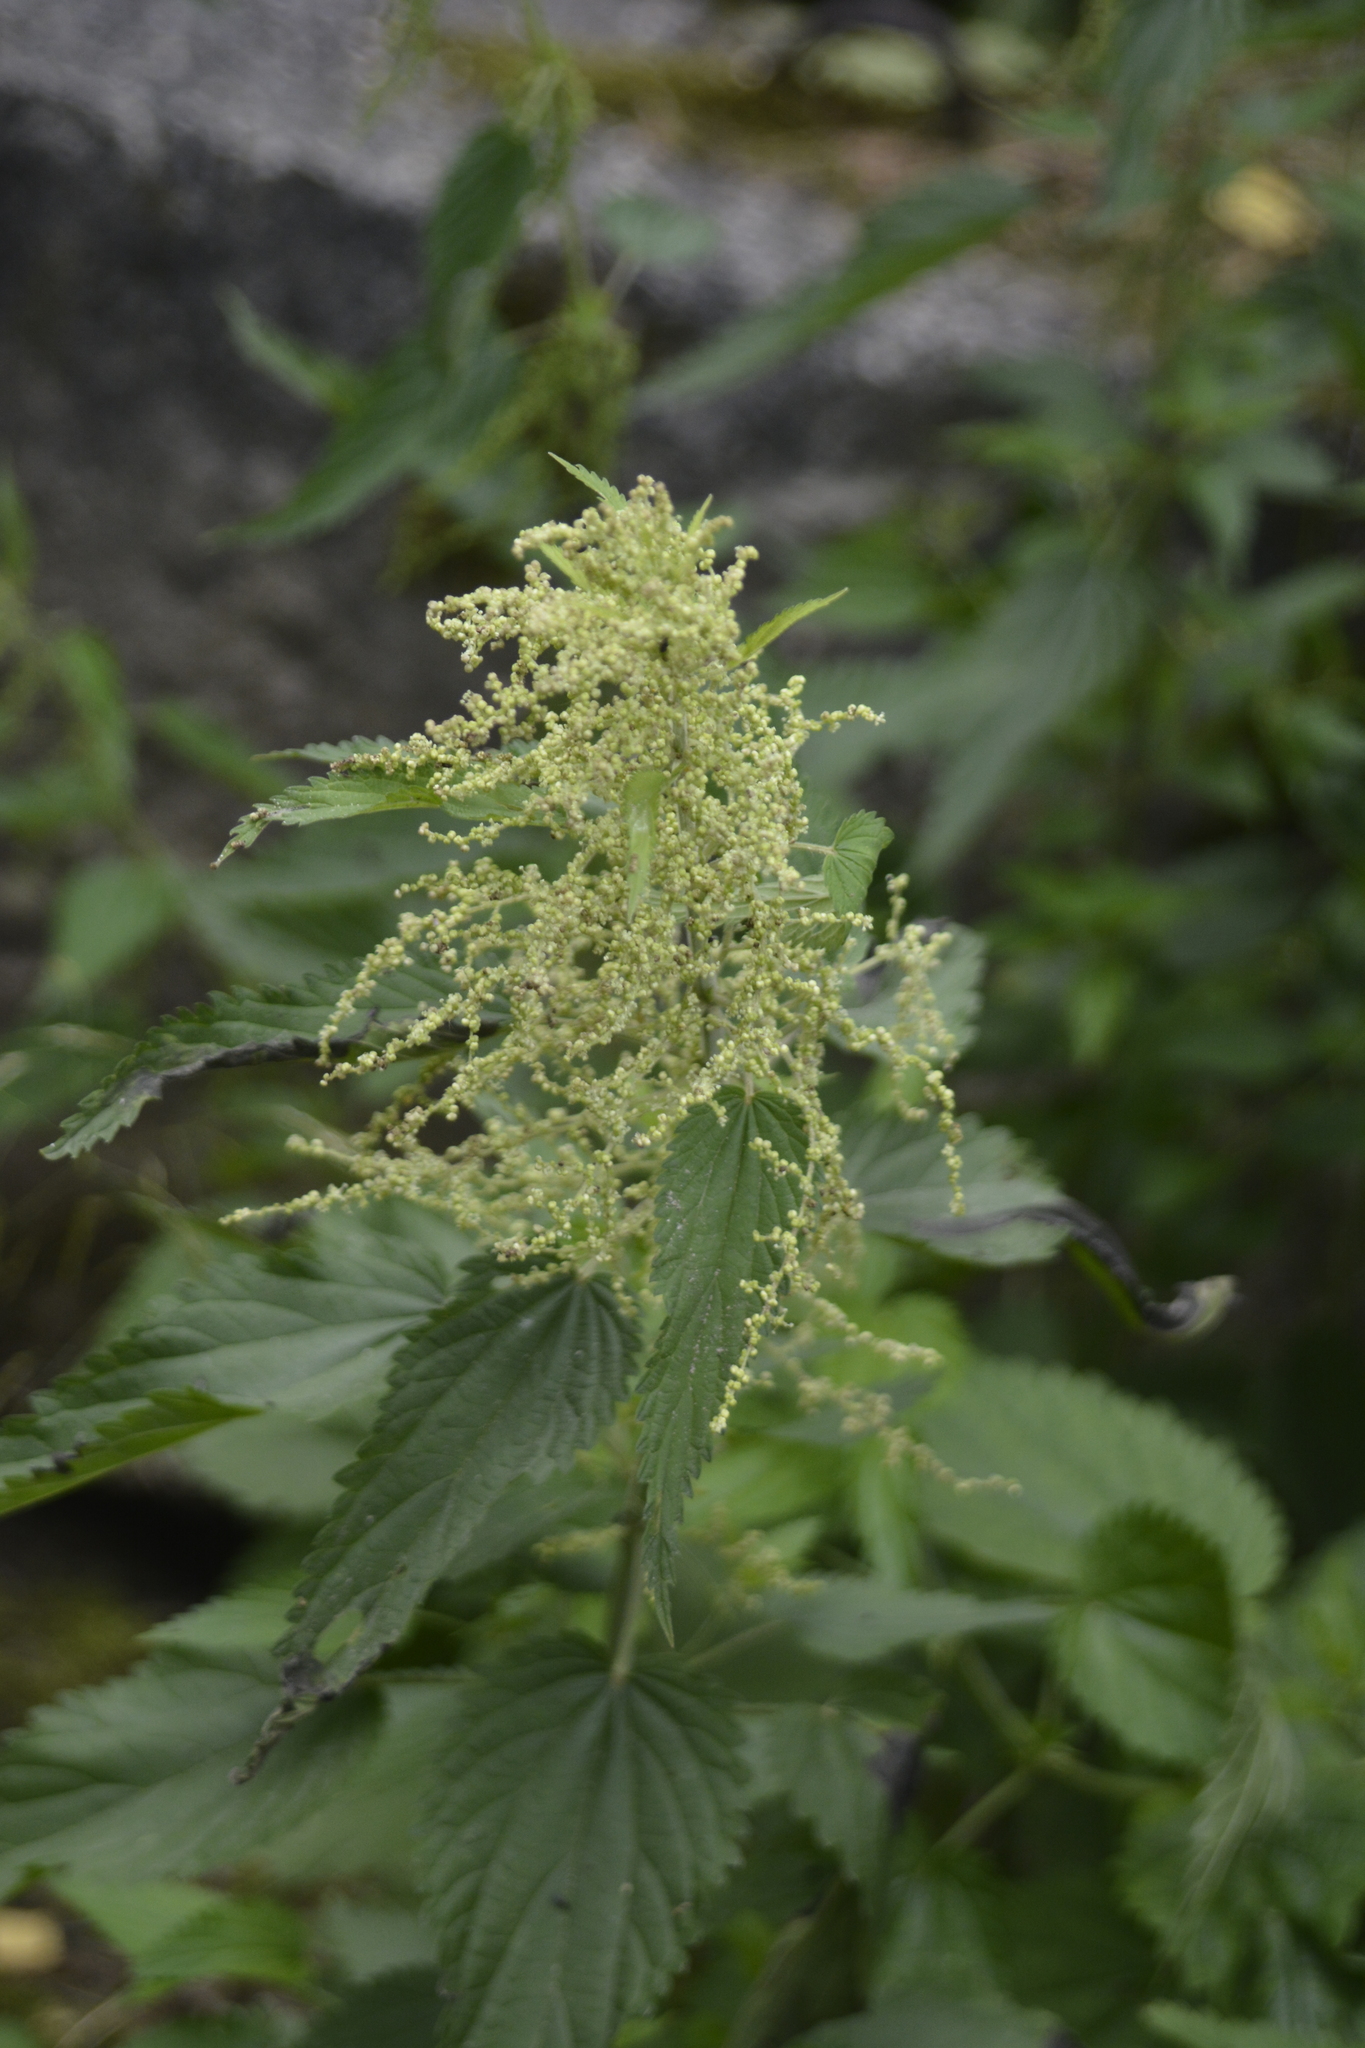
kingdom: Plantae
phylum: Tracheophyta
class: Magnoliopsida
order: Rosales
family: Urticaceae
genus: Urtica
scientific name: Urtica dioica
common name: Common nettle
